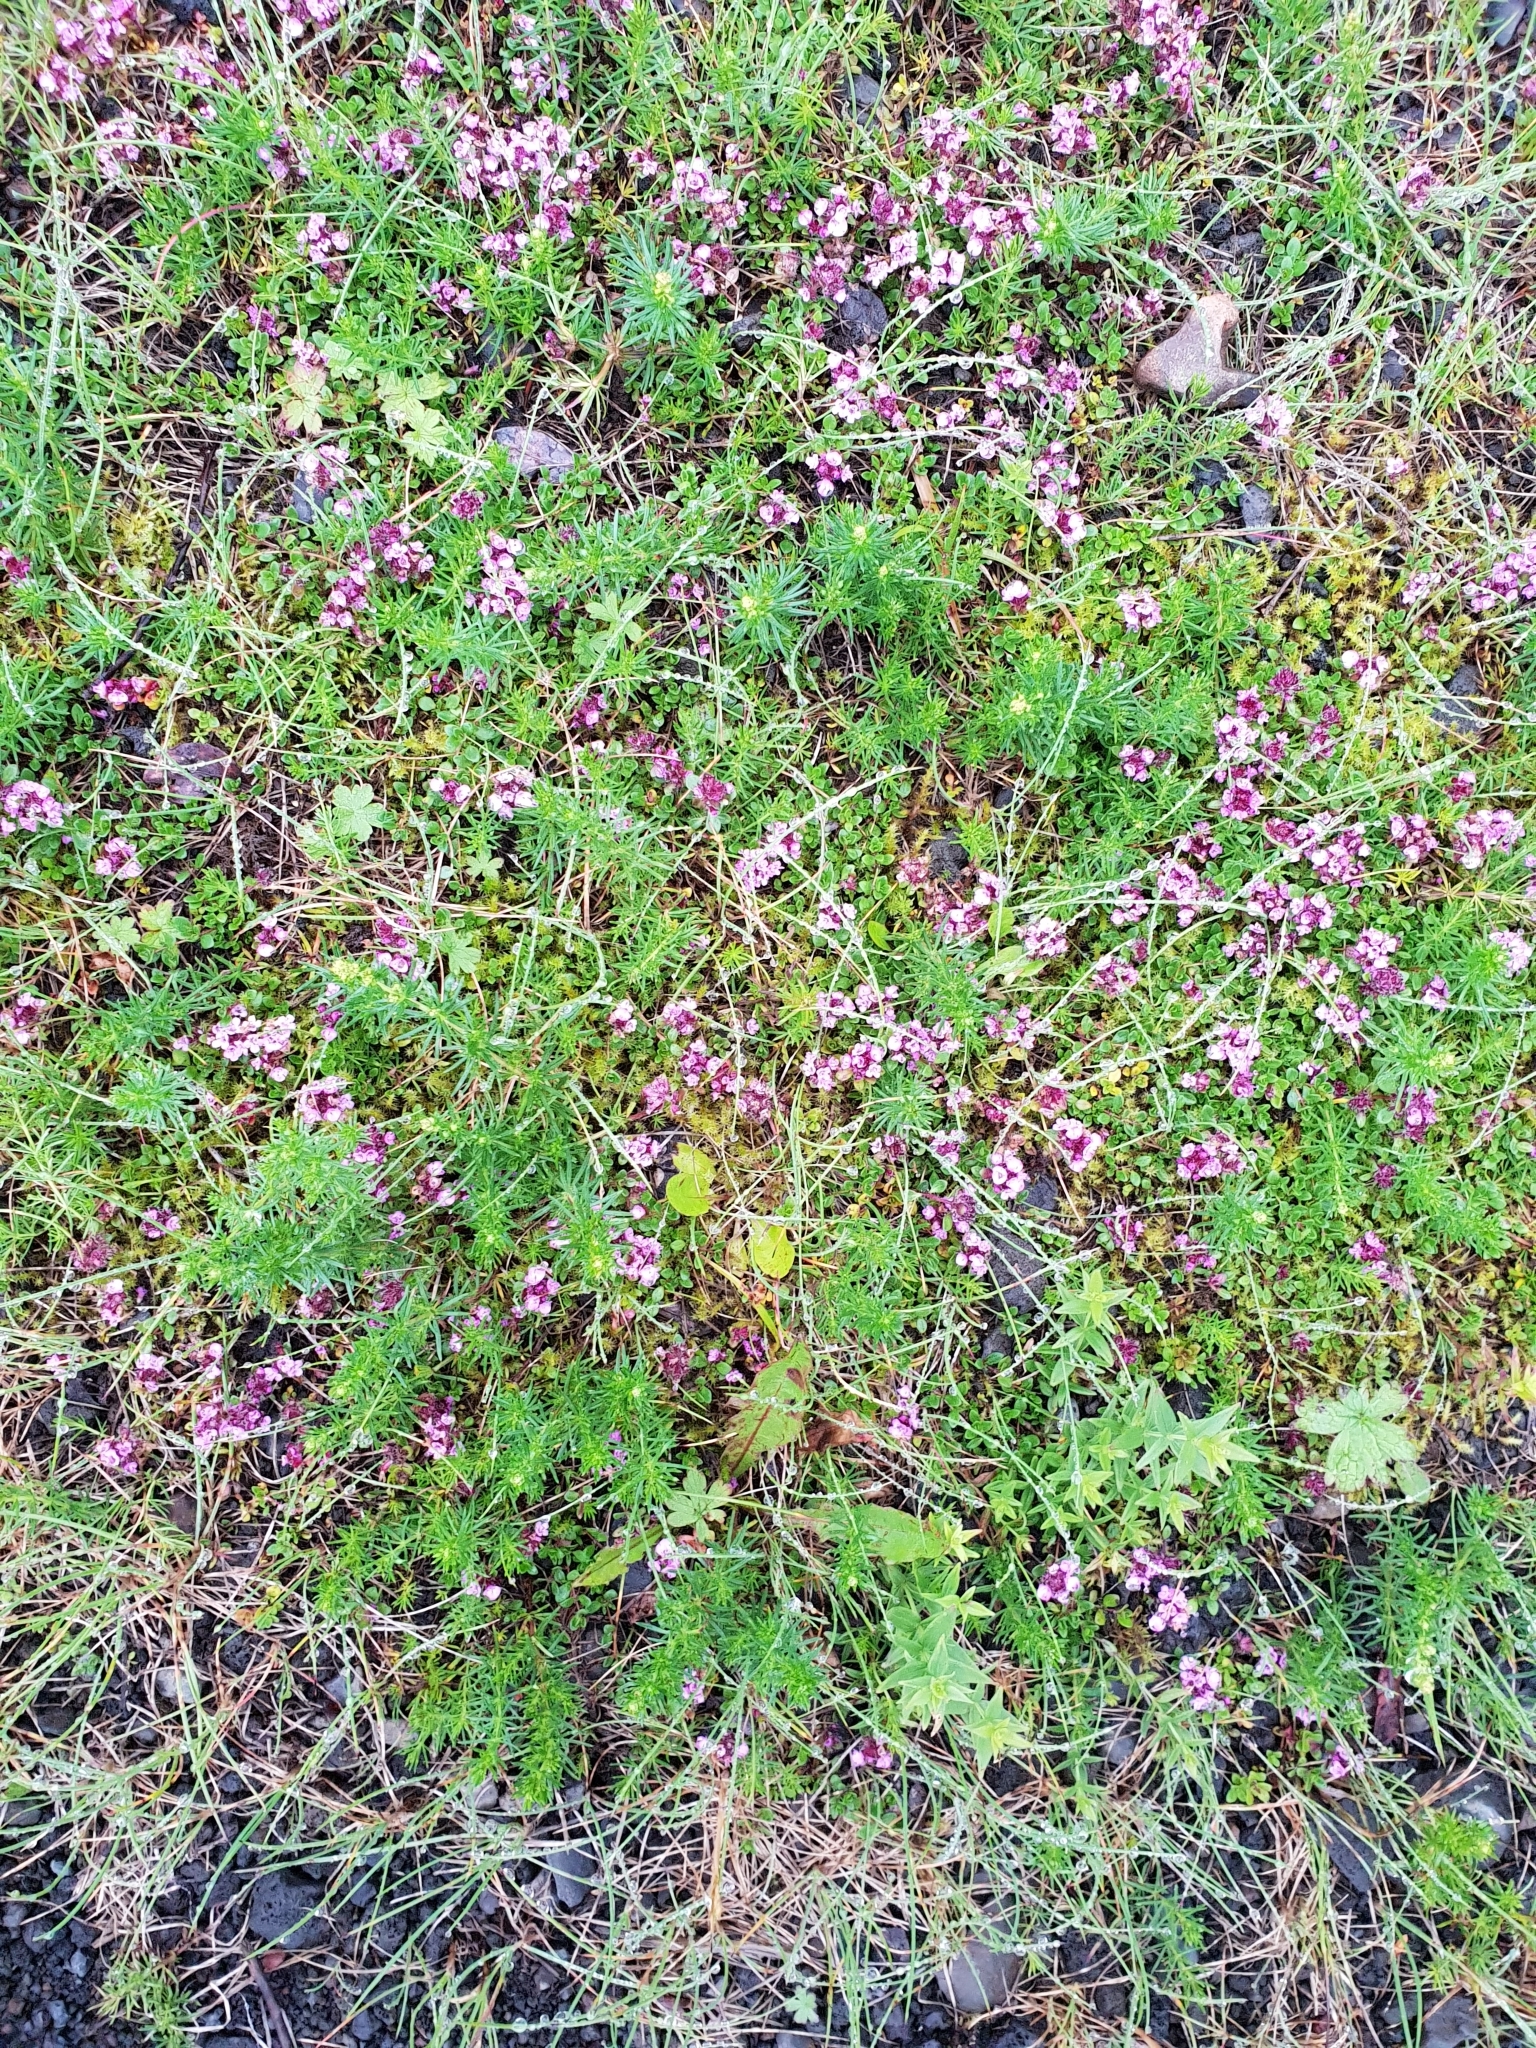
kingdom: Plantae
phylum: Tracheophyta
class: Magnoliopsida
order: Lamiales
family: Lamiaceae
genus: Thymus
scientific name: Thymus praecox
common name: Wild thyme
